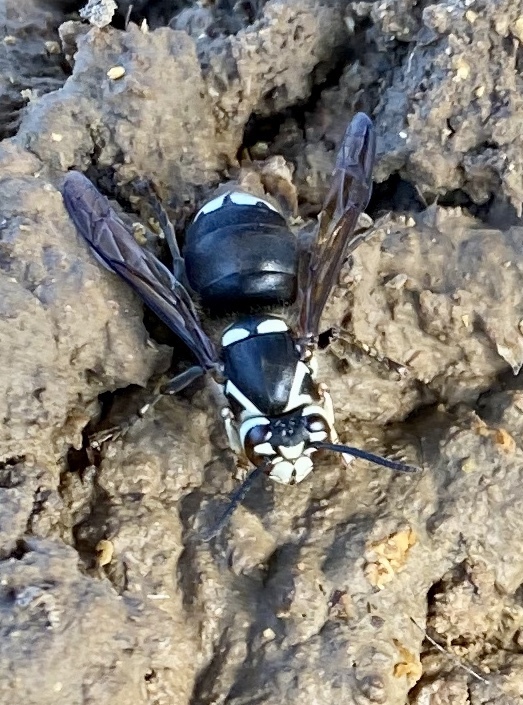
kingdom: Animalia
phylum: Arthropoda
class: Insecta
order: Hymenoptera
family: Vespidae
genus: Dolichovespula
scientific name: Dolichovespula maculata
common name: Bald-faced hornet
